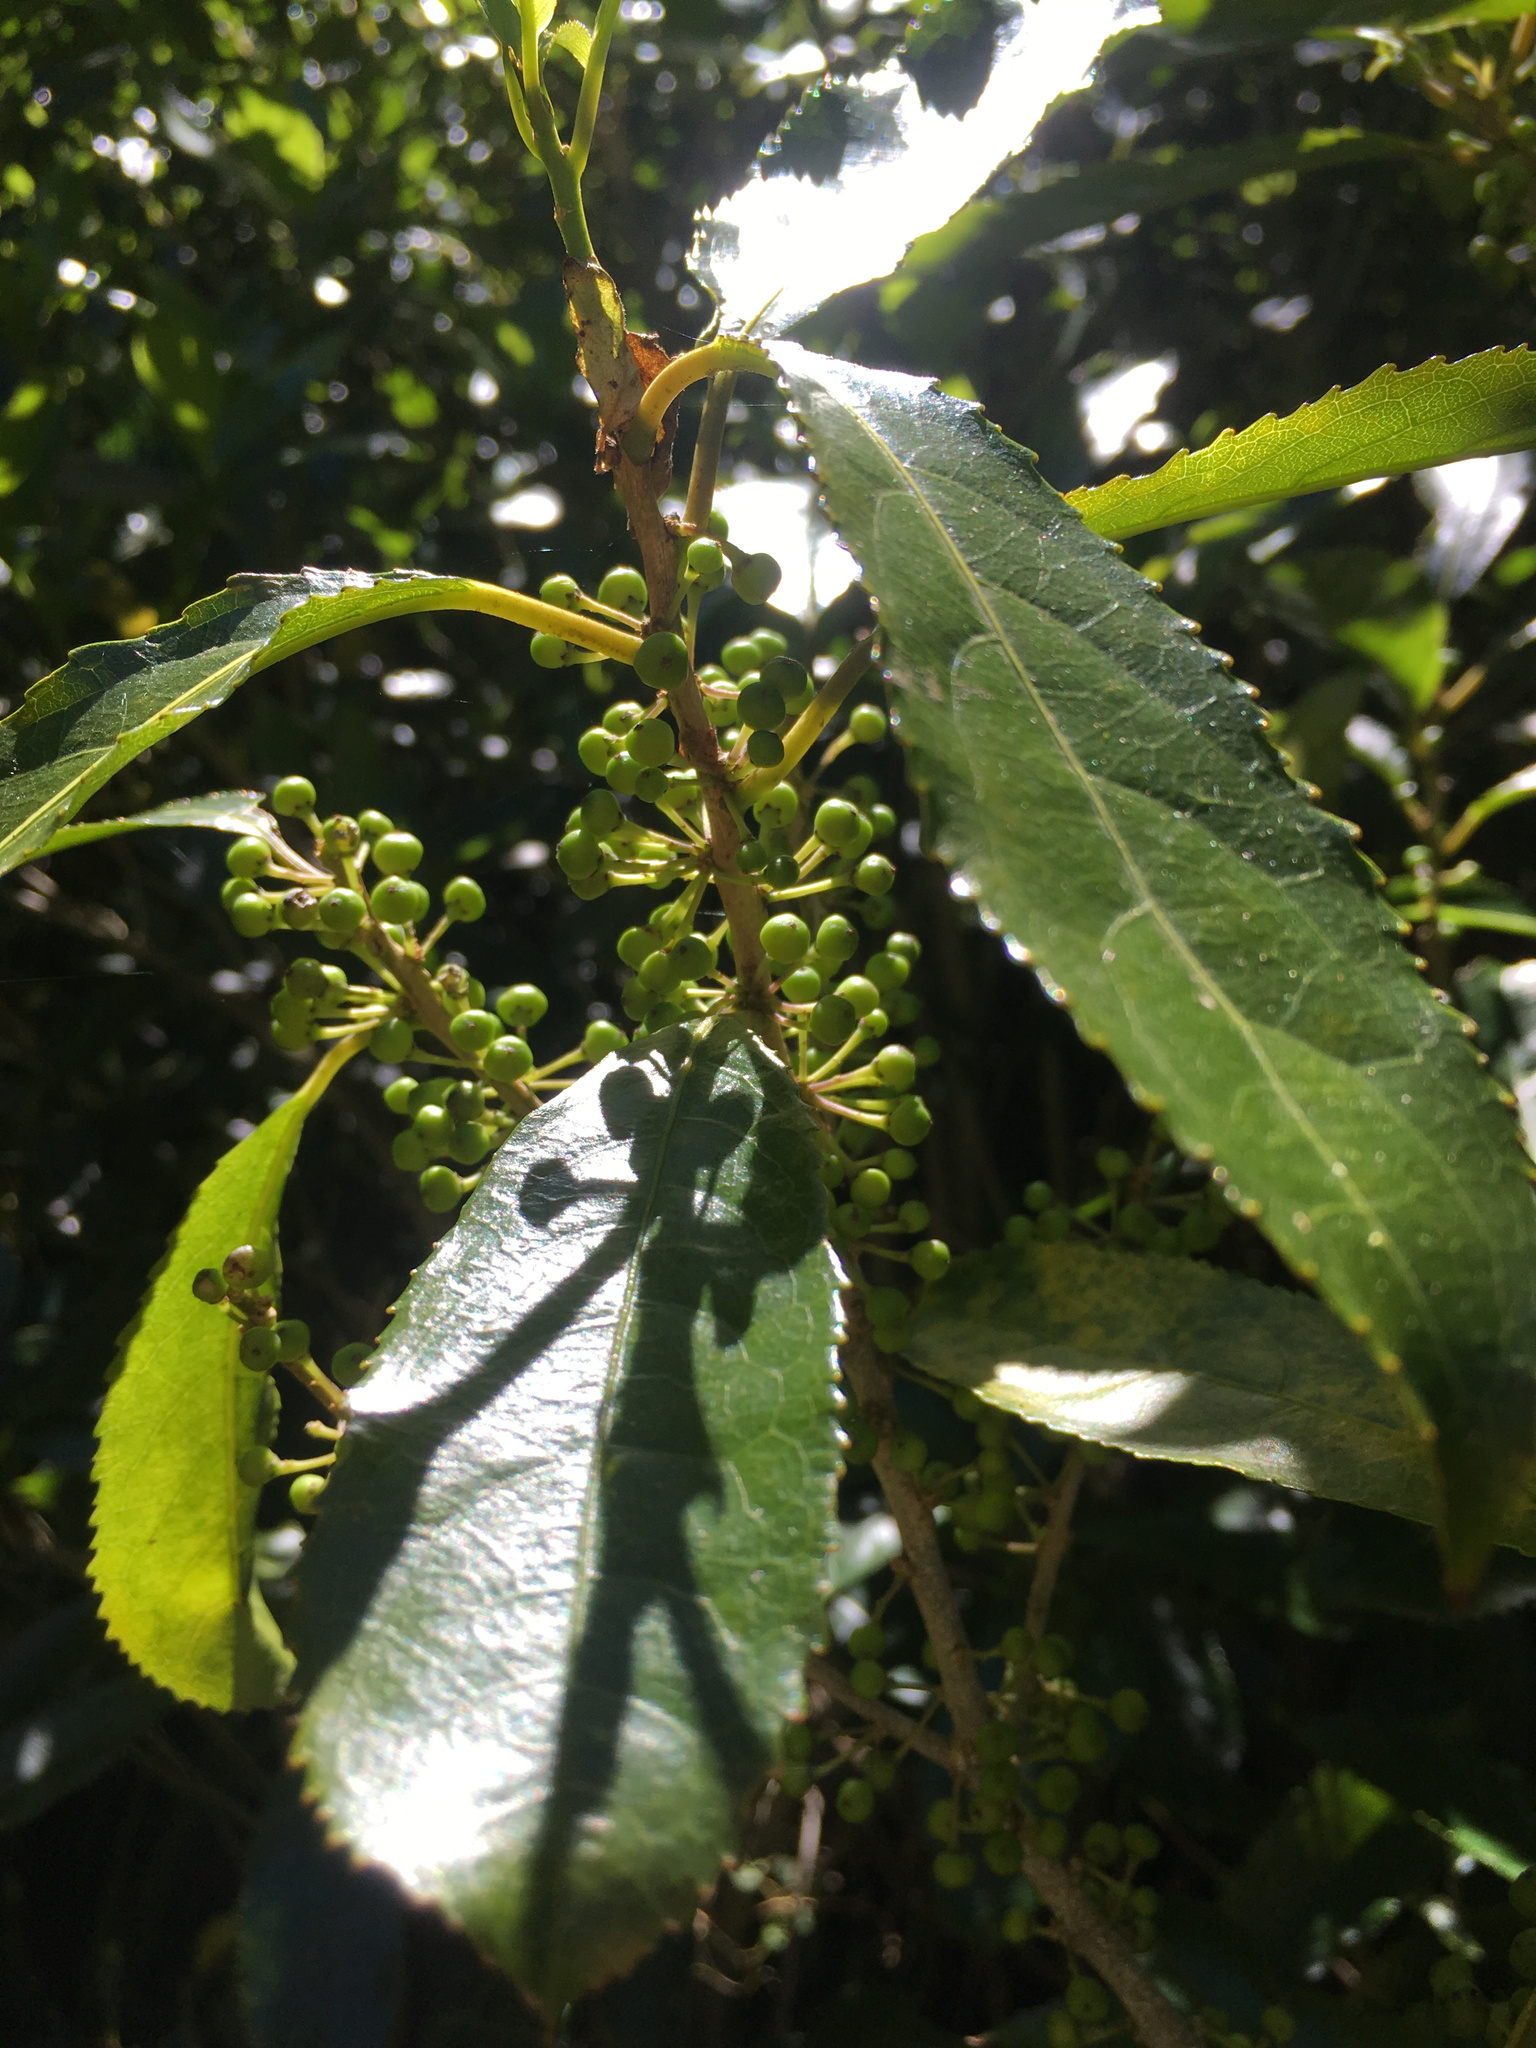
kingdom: Plantae
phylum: Tracheophyta
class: Magnoliopsida
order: Malpighiales
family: Violaceae
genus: Melicytus
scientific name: Melicytus ramiflorus
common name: Mahoe
